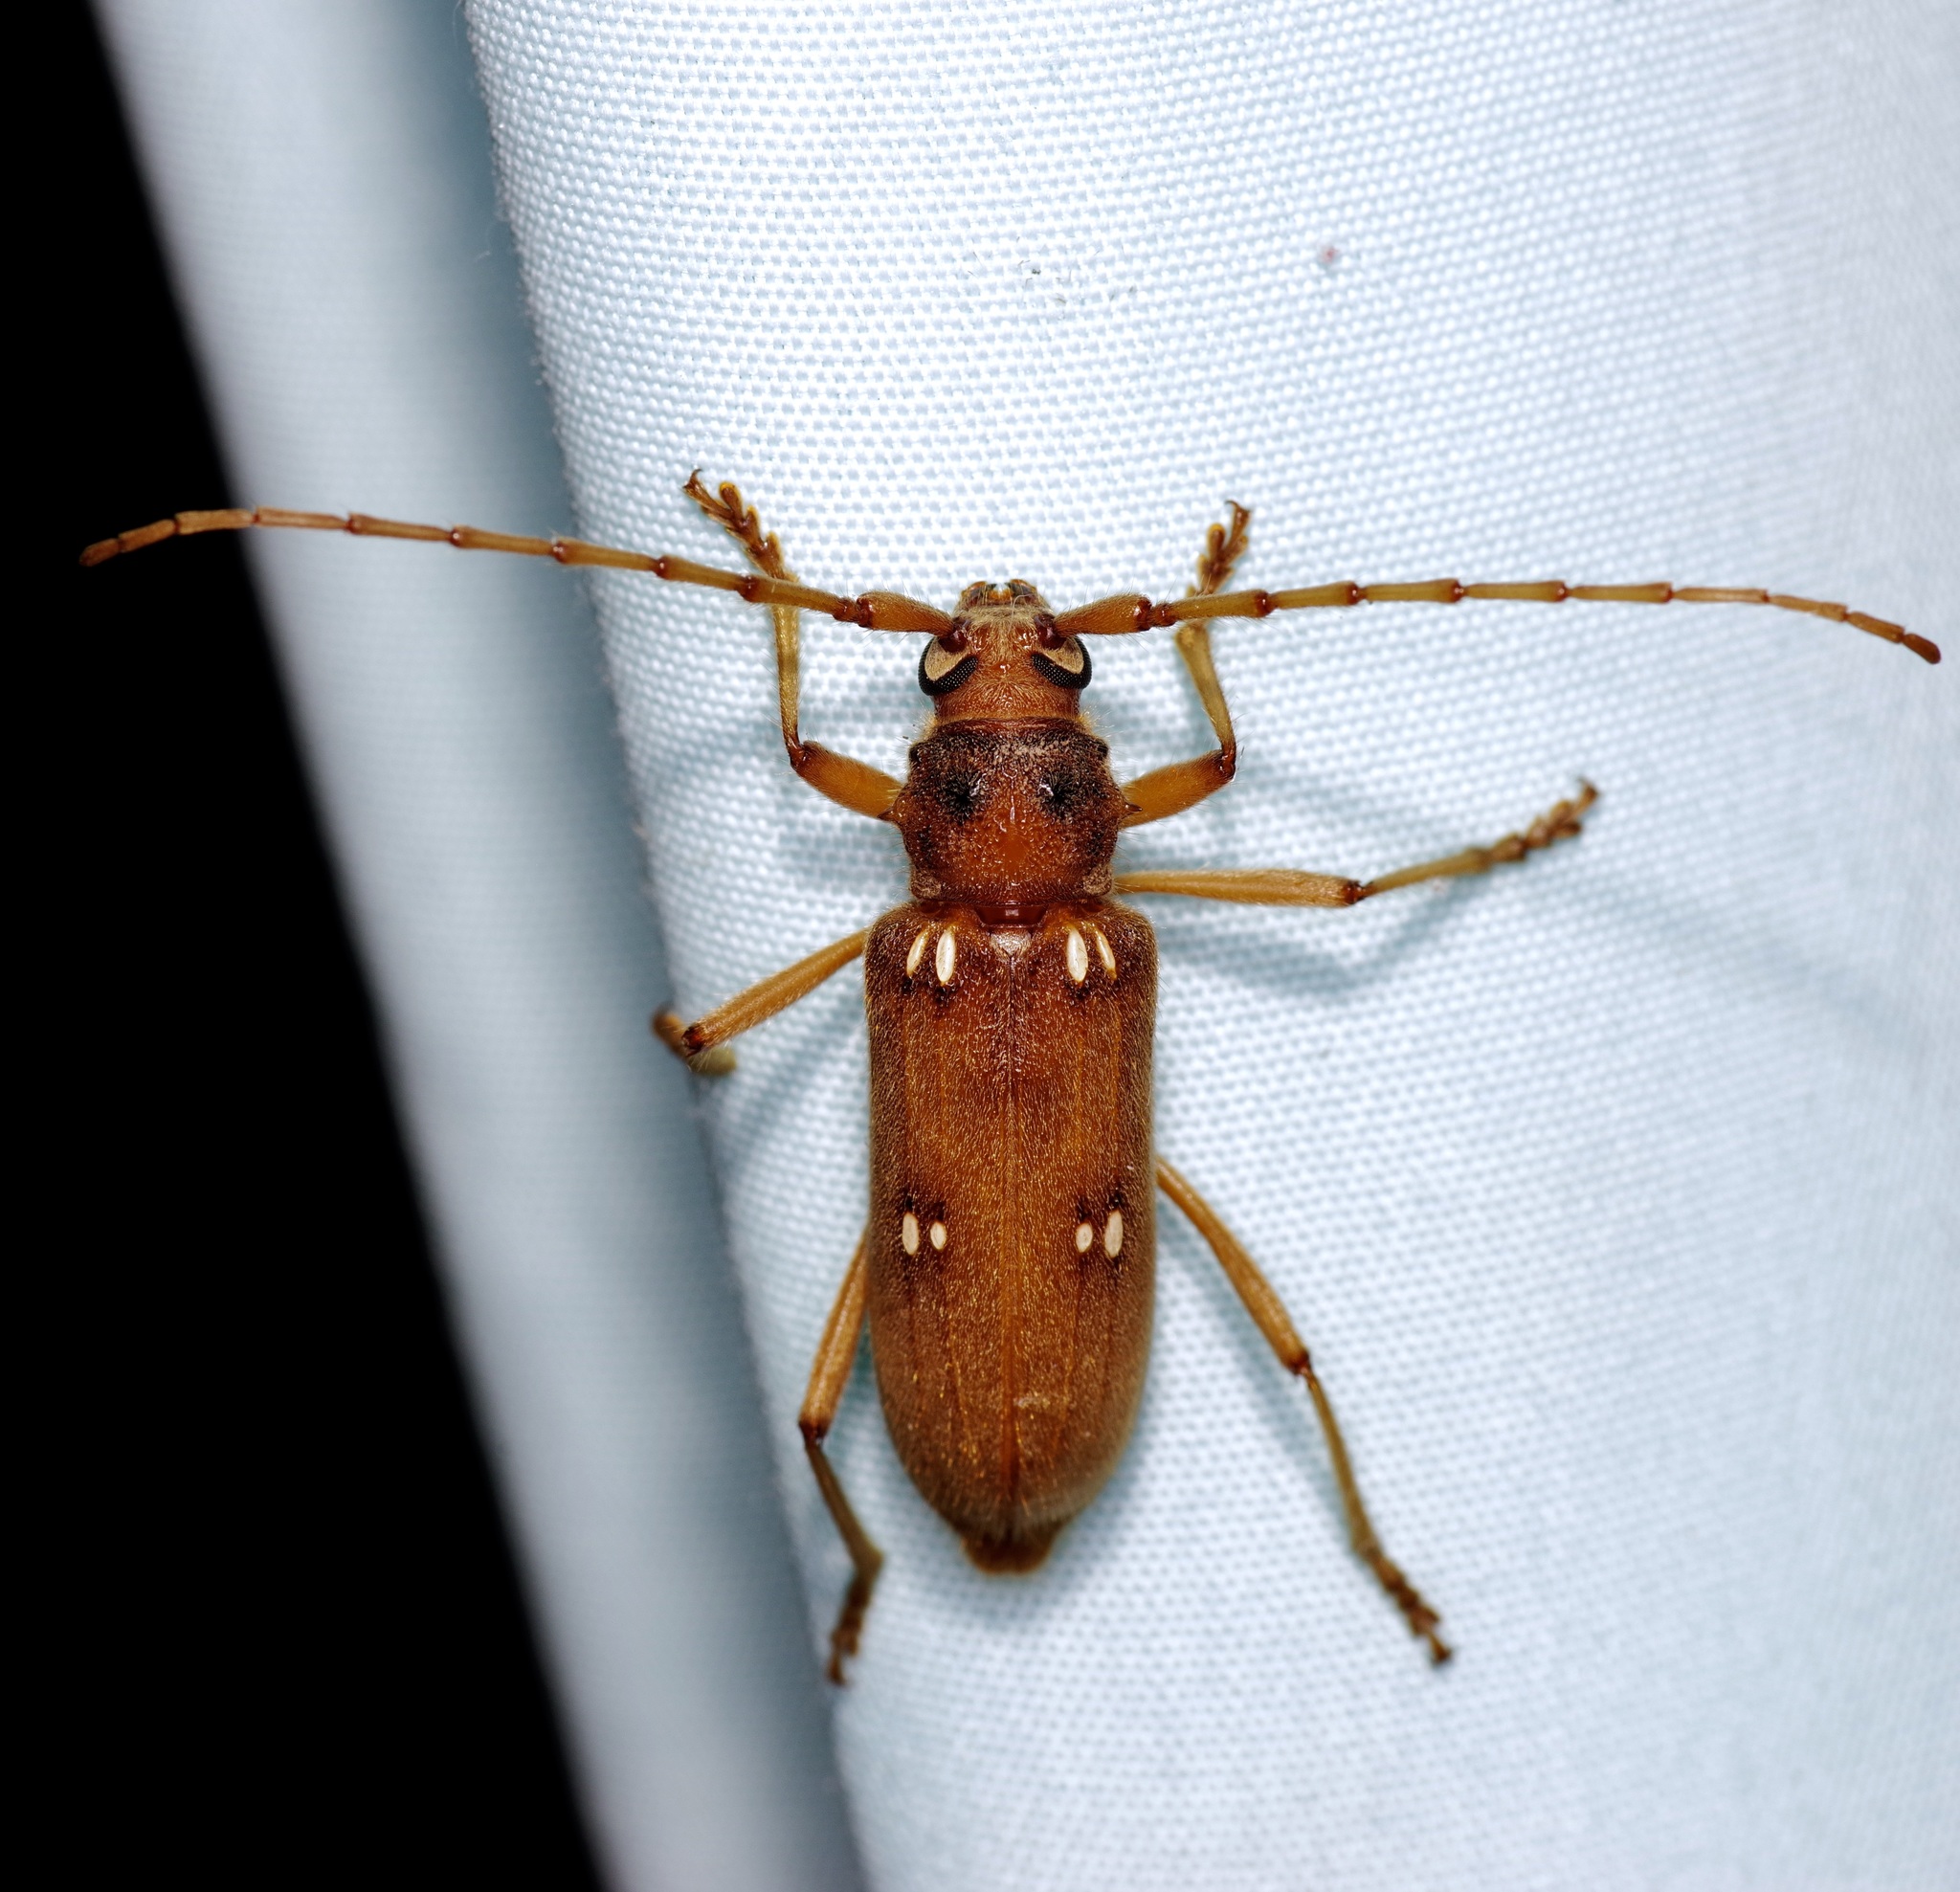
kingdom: Animalia
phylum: Arthropoda
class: Insecta
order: Coleoptera
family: Cerambycidae
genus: Eburia
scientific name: Eburia quadrigeminata
